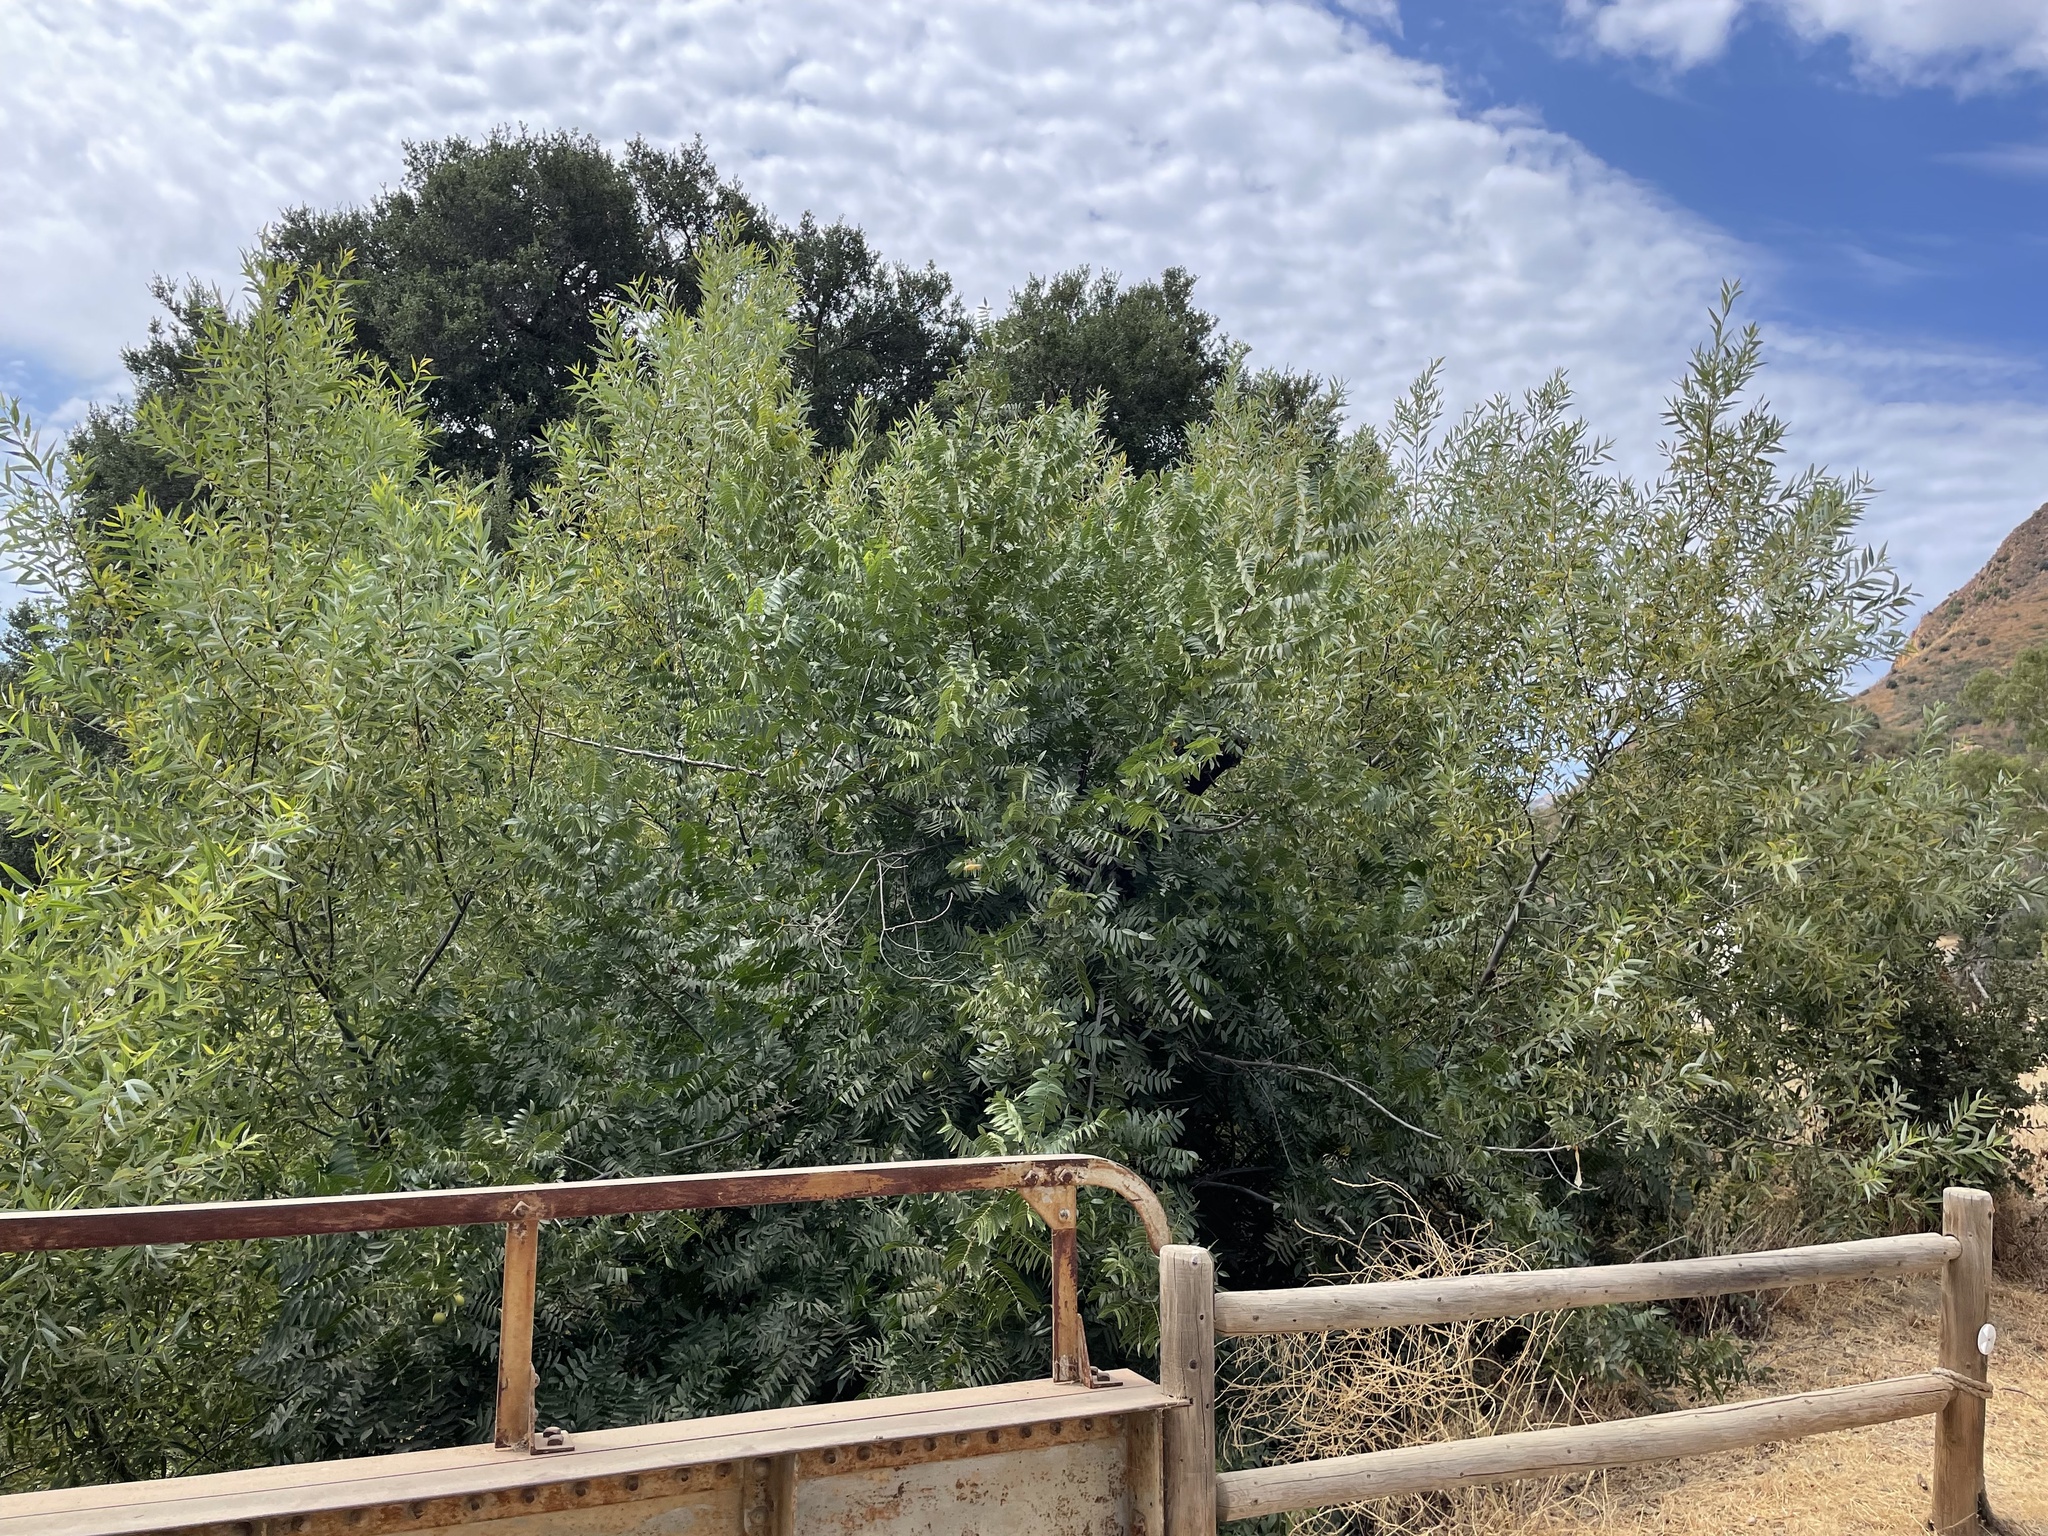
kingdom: Plantae
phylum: Tracheophyta
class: Magnoliopsida
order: Fagales
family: Juglandaceae
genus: Juglans
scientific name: Juglans californica
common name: Southern california black walnut
